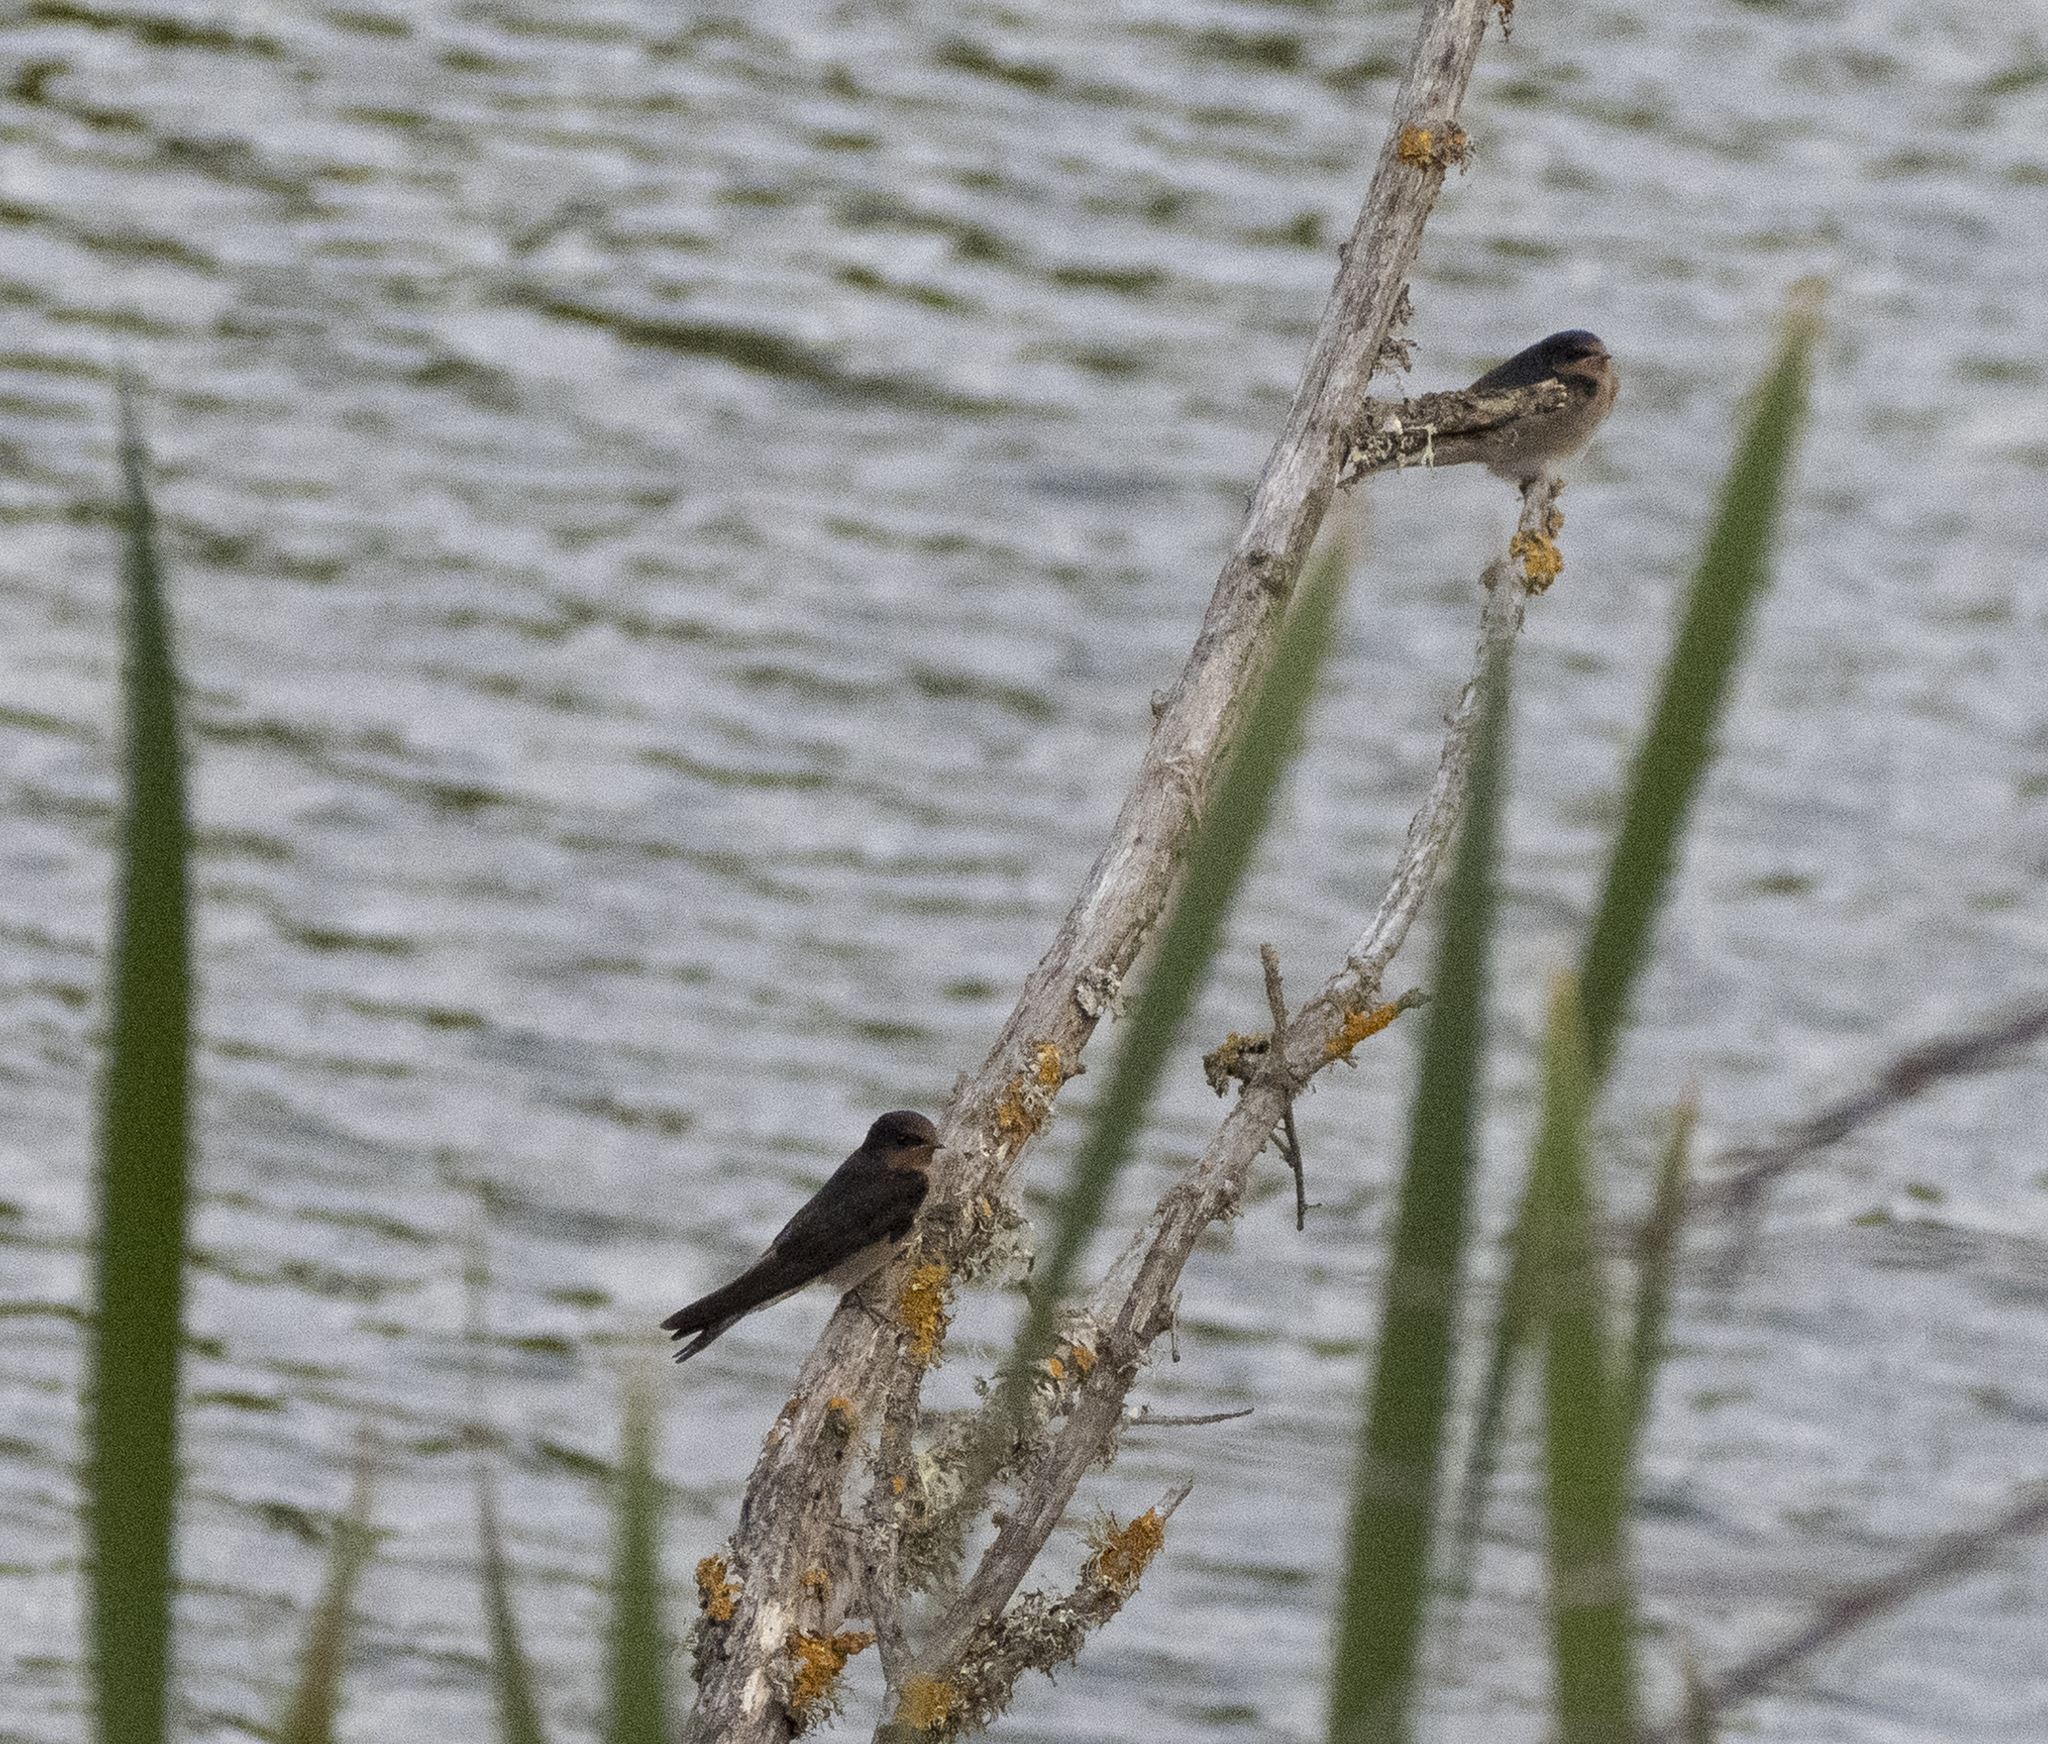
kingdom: Animalia
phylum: Chordata
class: Aves
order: Passeriformes
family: Hirundinidae
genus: Hirundo
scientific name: Hirundo neoxena
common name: Welcome swallow
